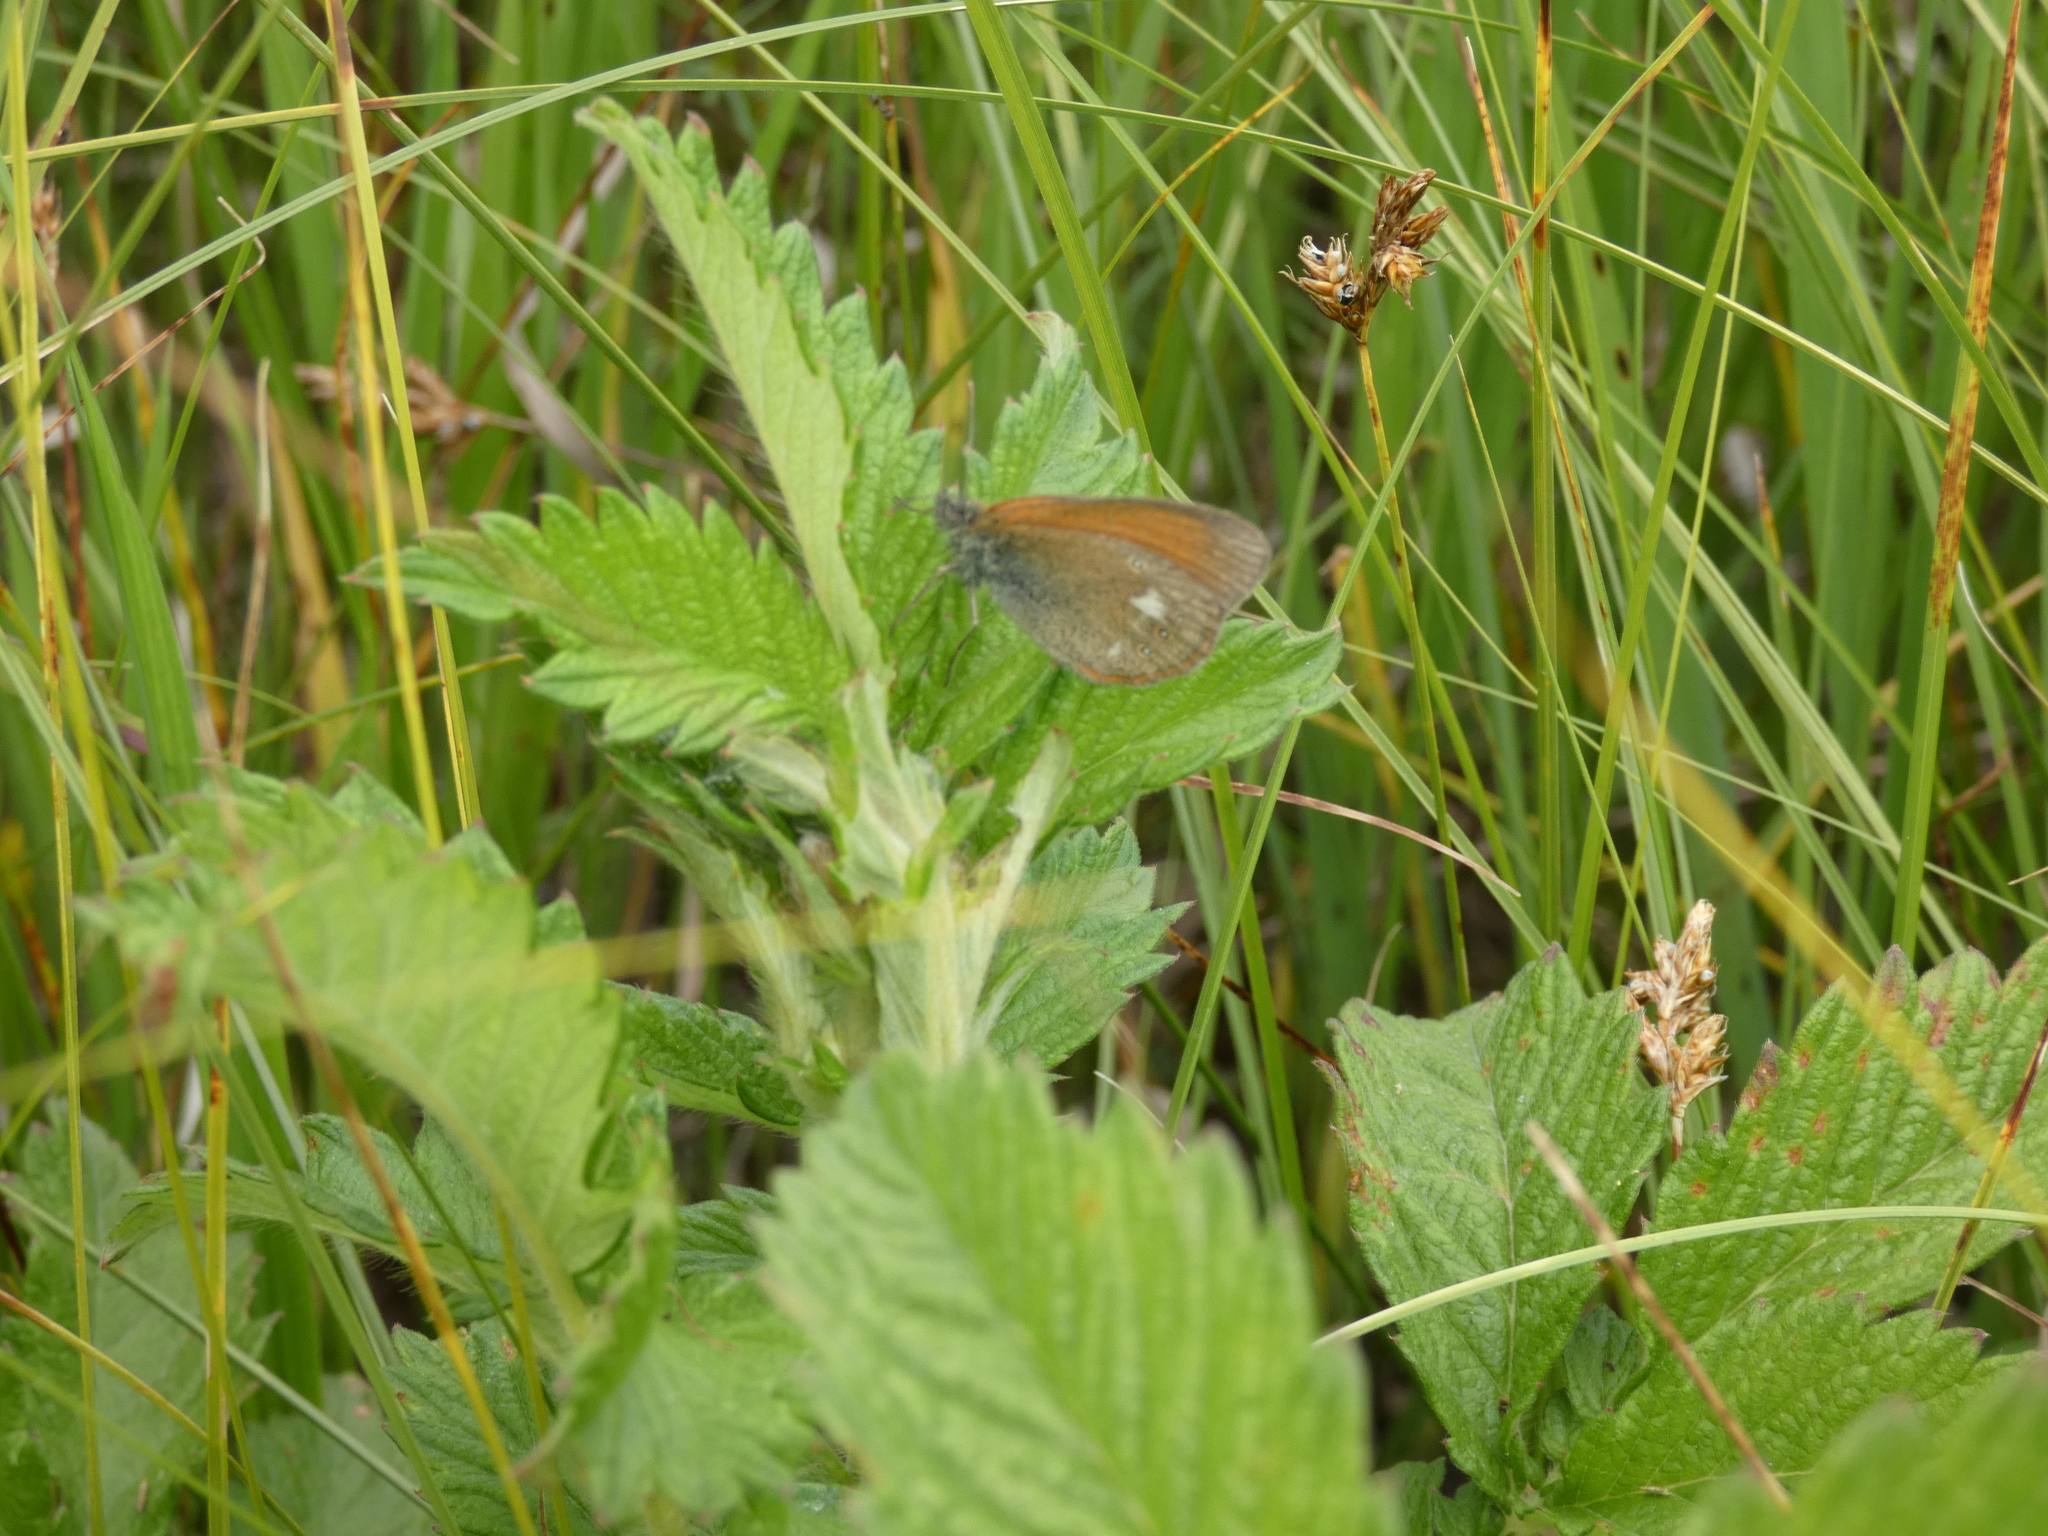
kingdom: Animalia
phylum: Arthropoda
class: Insecta
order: Lepidoptera
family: Nymphalidae
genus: Coenonympha
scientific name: Coenonympha iphis
